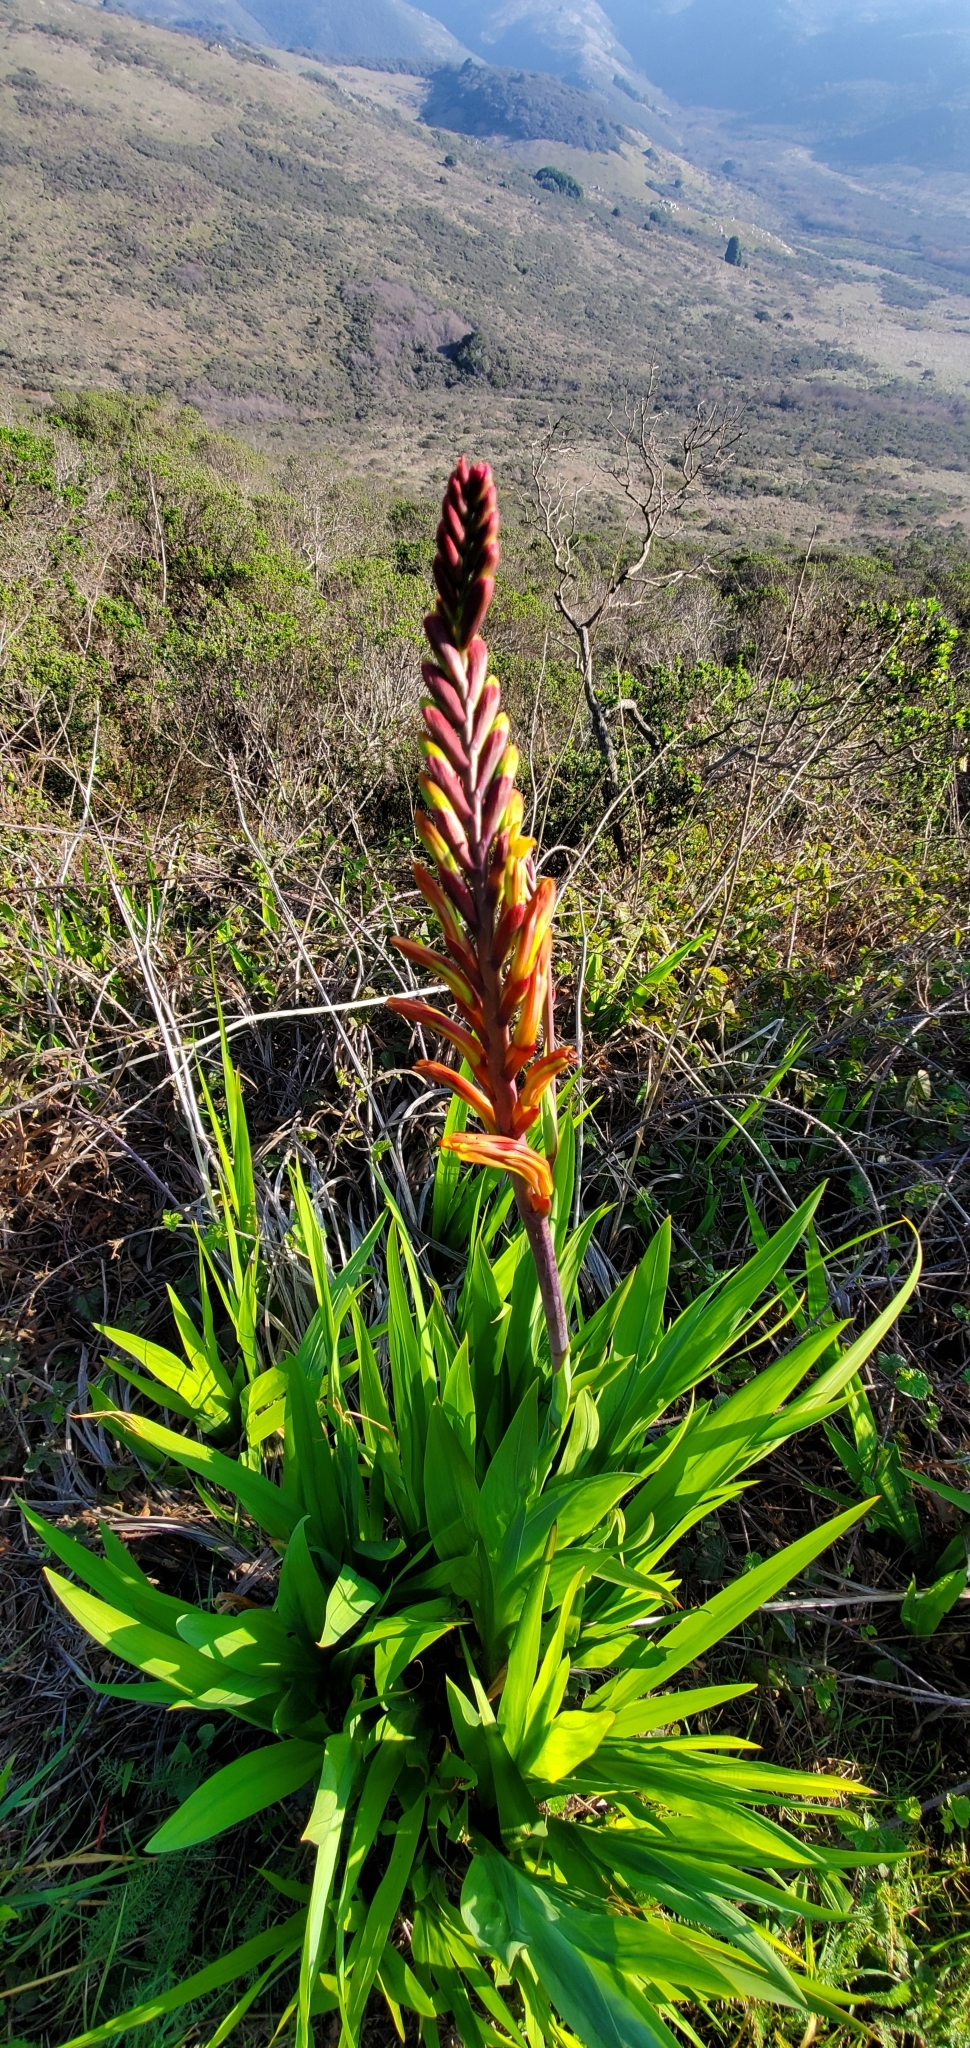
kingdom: Plantae
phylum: Tracheophyta
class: Liliopsida
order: Asparagales
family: Iridaceae
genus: Chasmanthe
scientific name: Chasmanthe floribunda
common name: African cornflag
